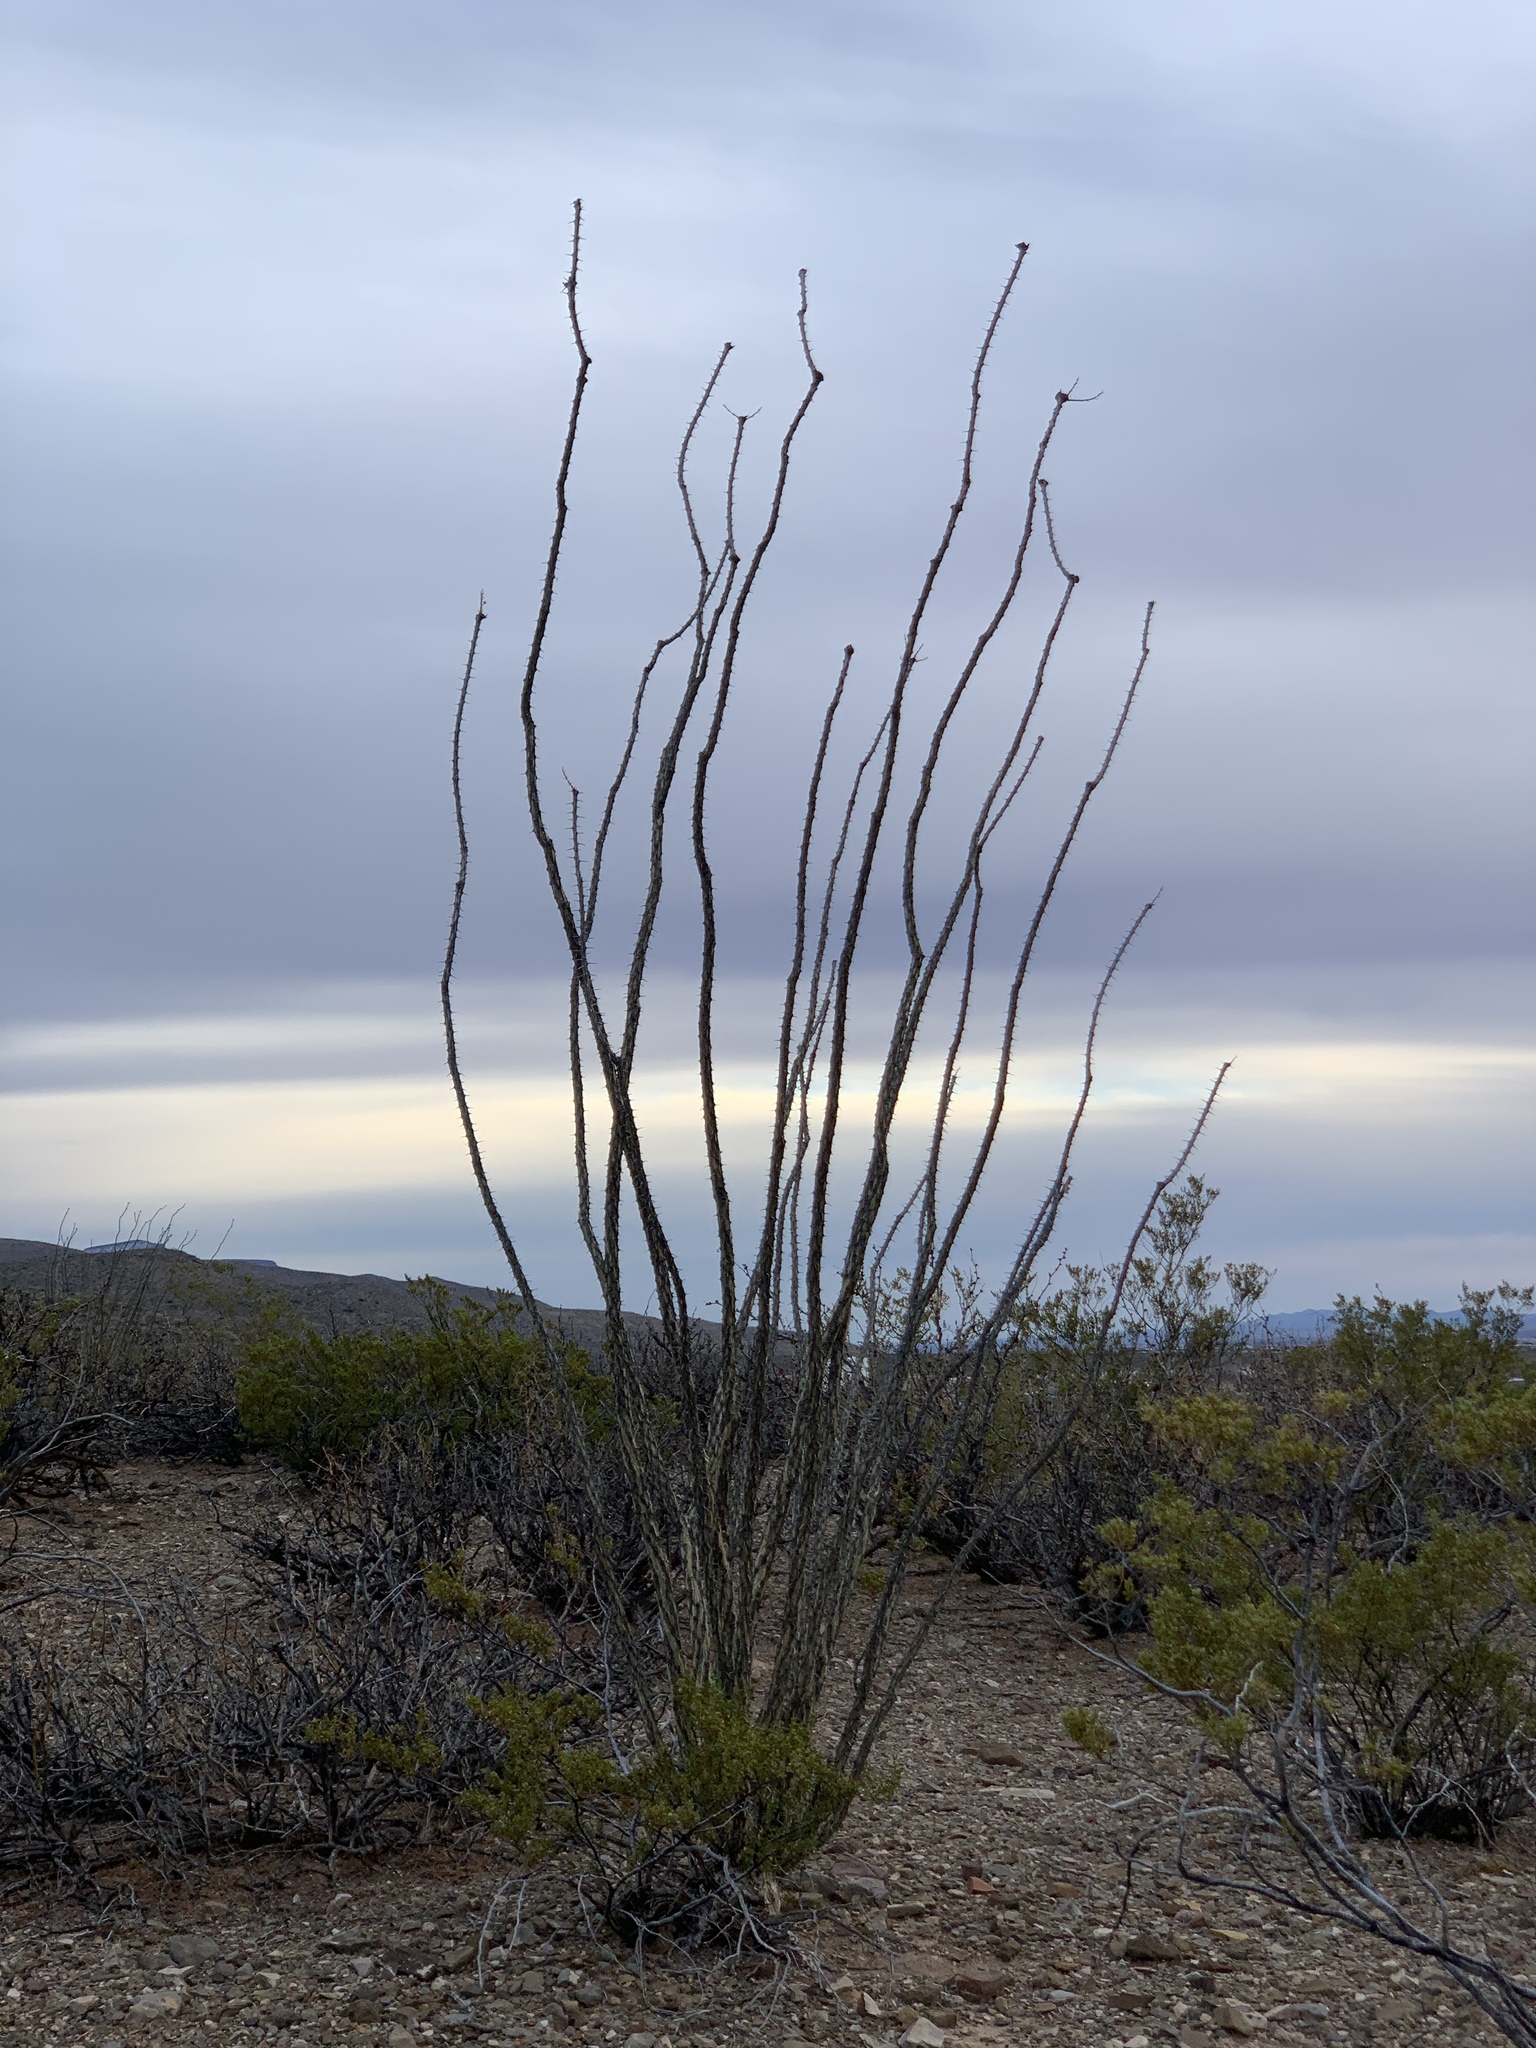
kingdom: Plantae
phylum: Tracheophyta
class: Magnoliopsida
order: Ericales
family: Fouquieriaceae
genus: Fouquieria
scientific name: Fouquieria splendens
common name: Vine-cactus
